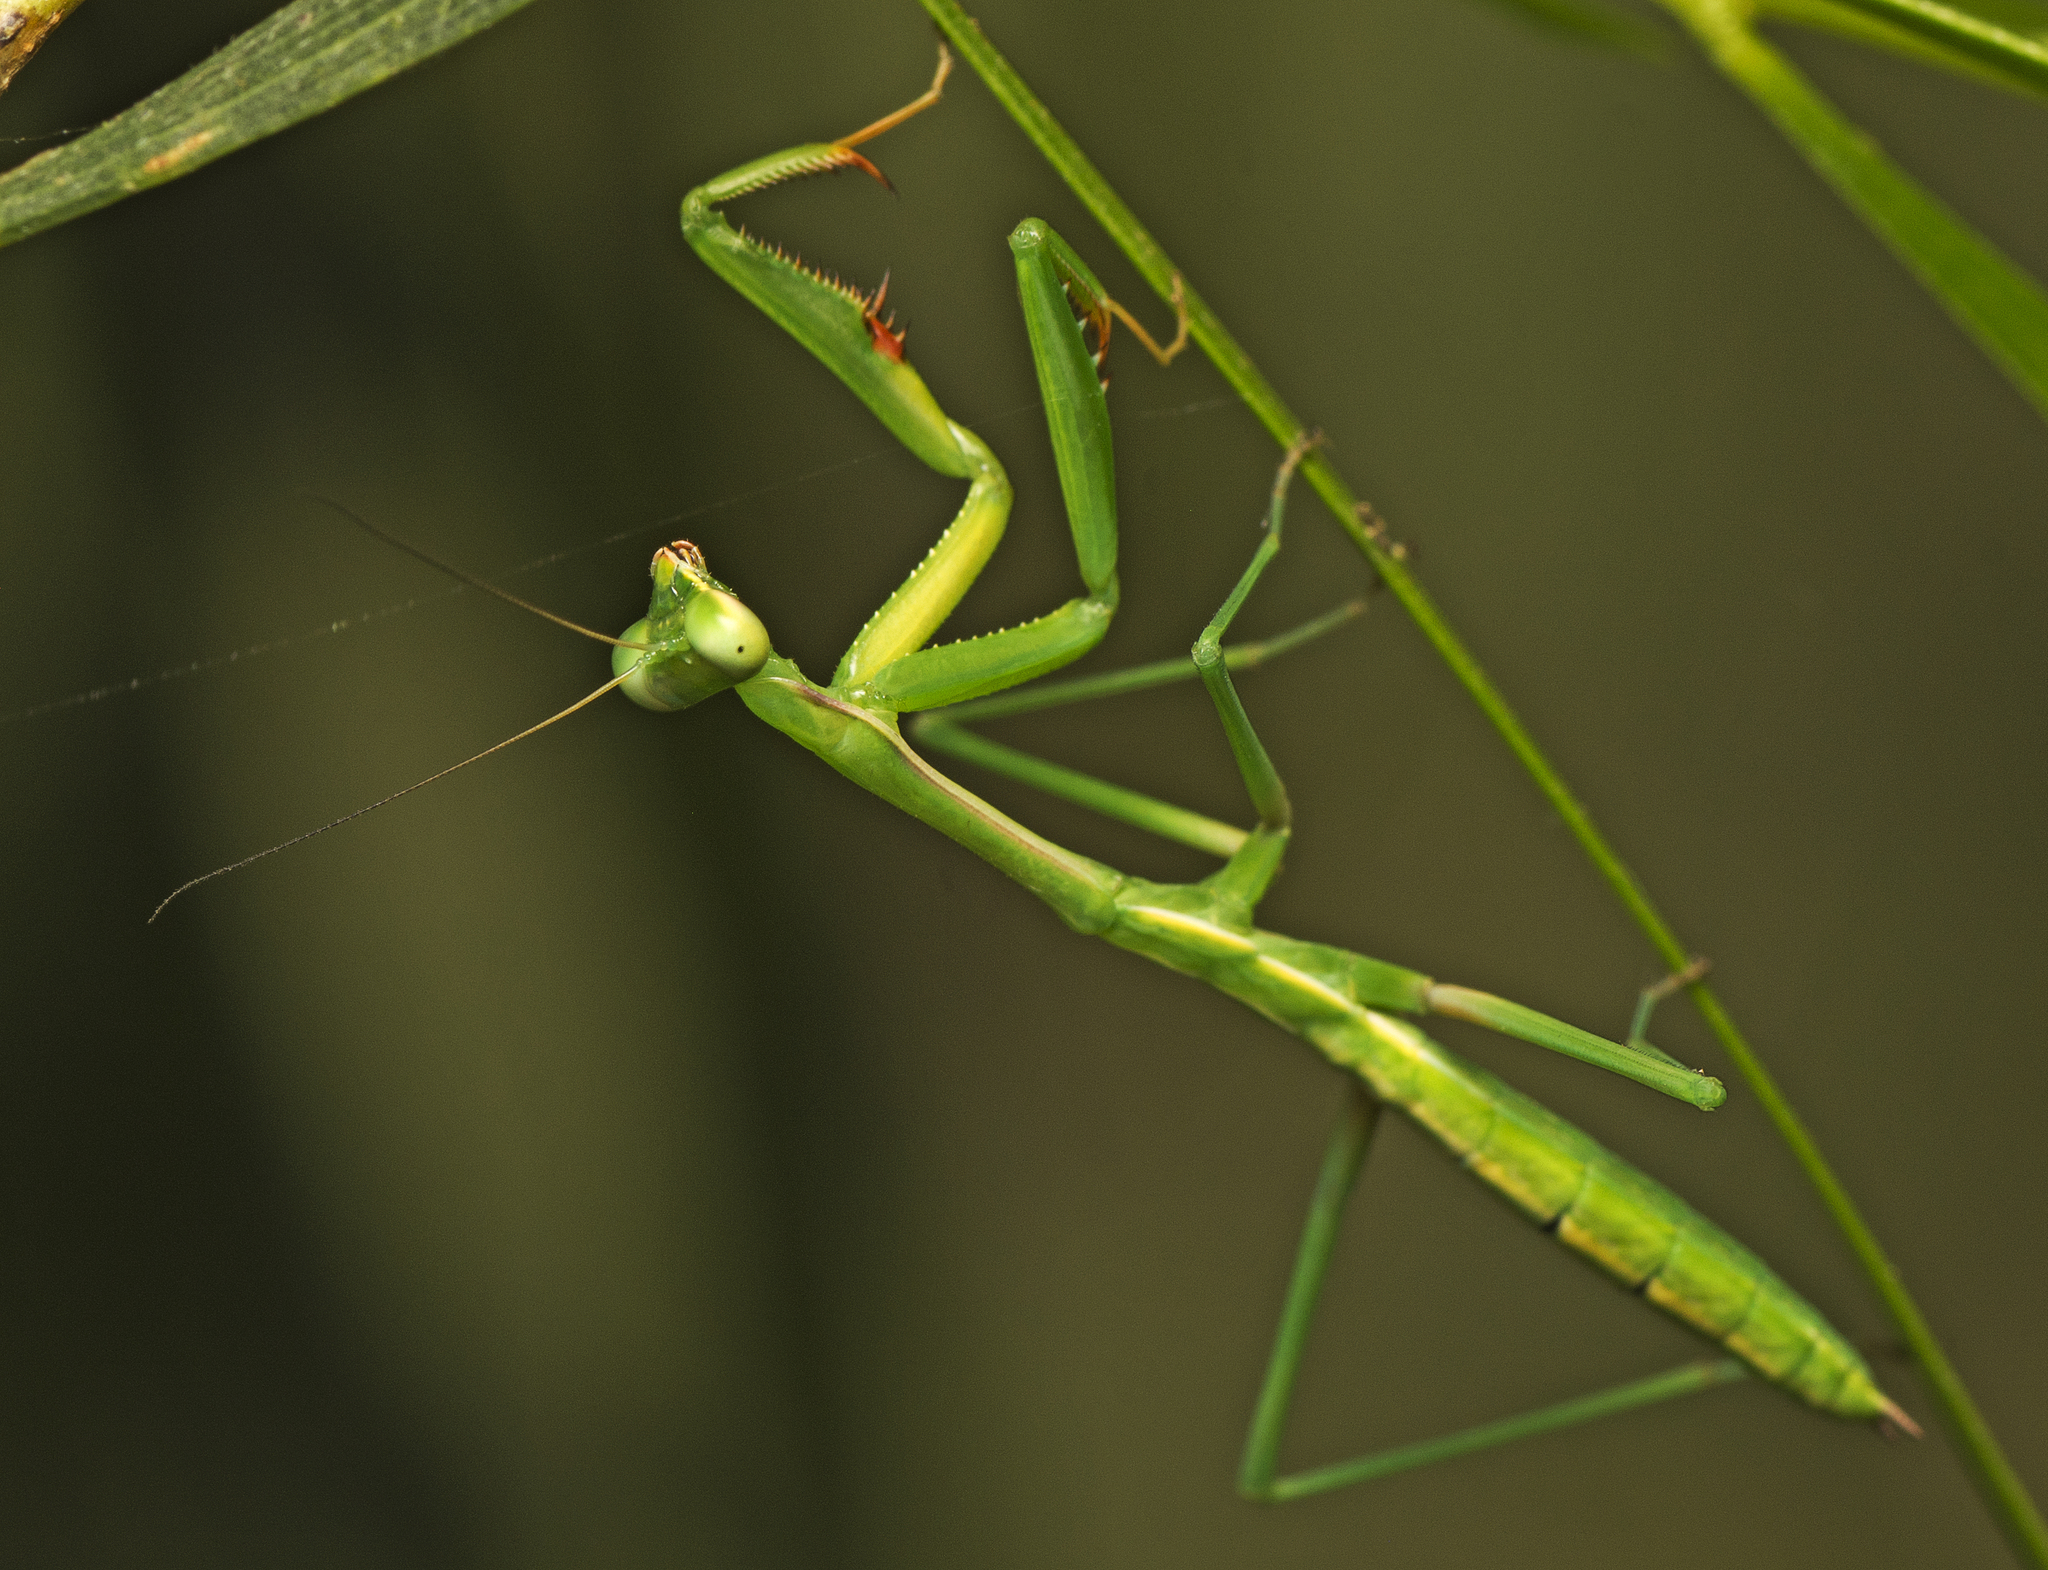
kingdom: Animalia
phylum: Arthropoda
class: Insecta
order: Mantodea
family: Mantidae
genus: Pseudomantis
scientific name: Pseudomantis albofimbriata
